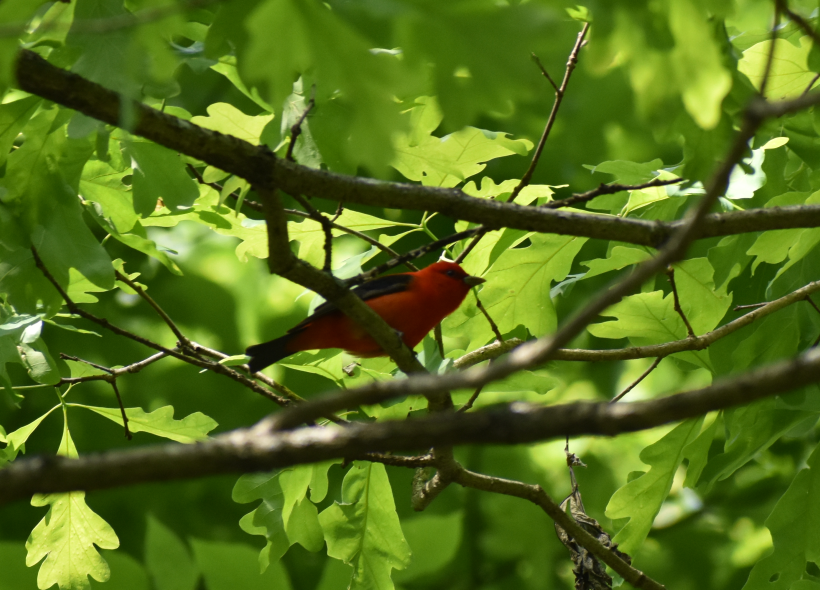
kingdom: Animalia
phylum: Chordata
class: Aves
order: Passeriformes
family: Cardinalidae
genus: Piranga
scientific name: Piranga olivacea
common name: Scarlet tanager
